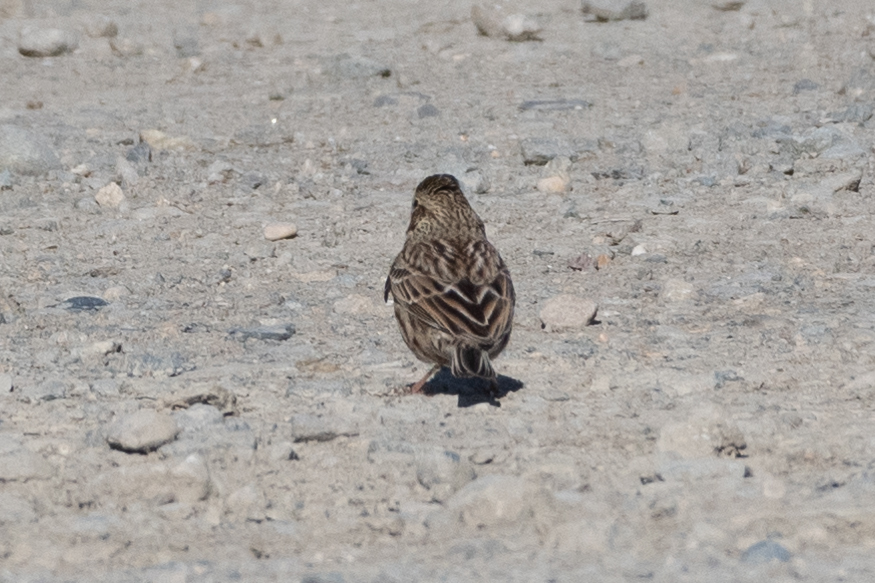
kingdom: Animalia
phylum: Chordata
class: Aves
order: Passeriformes
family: Passerellidae
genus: Passerculus
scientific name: Passerculus sandwichensis
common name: Savannah sparrow
